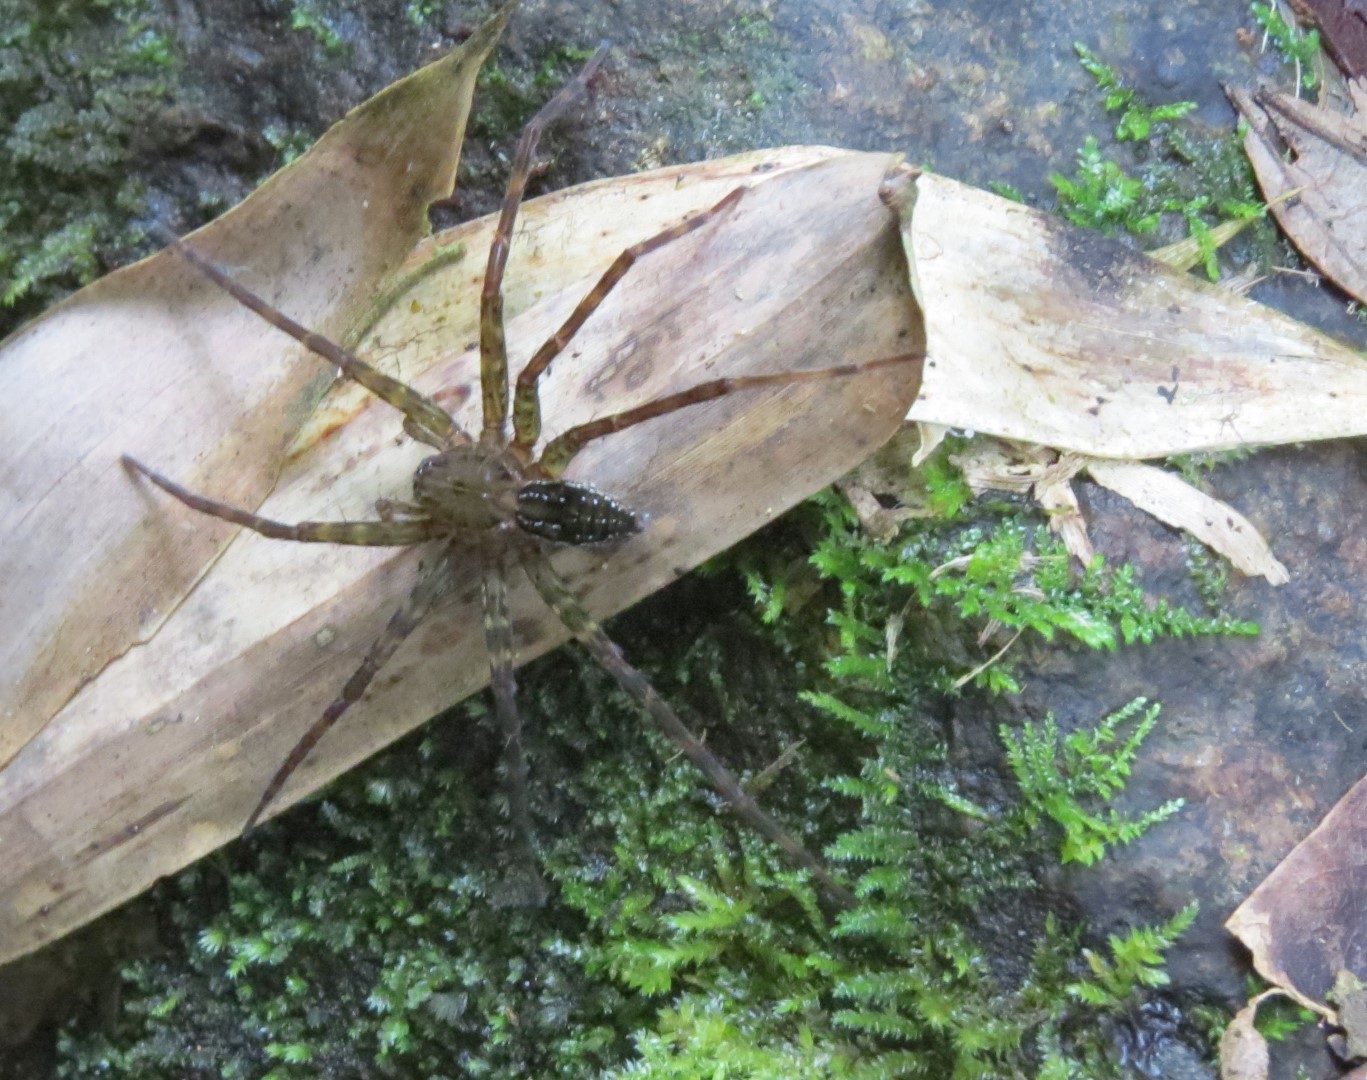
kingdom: Animalia
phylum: Arthropoda
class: Arachnida
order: Araneae
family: Pisauridae
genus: Dolomedes
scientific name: Dolomedes
